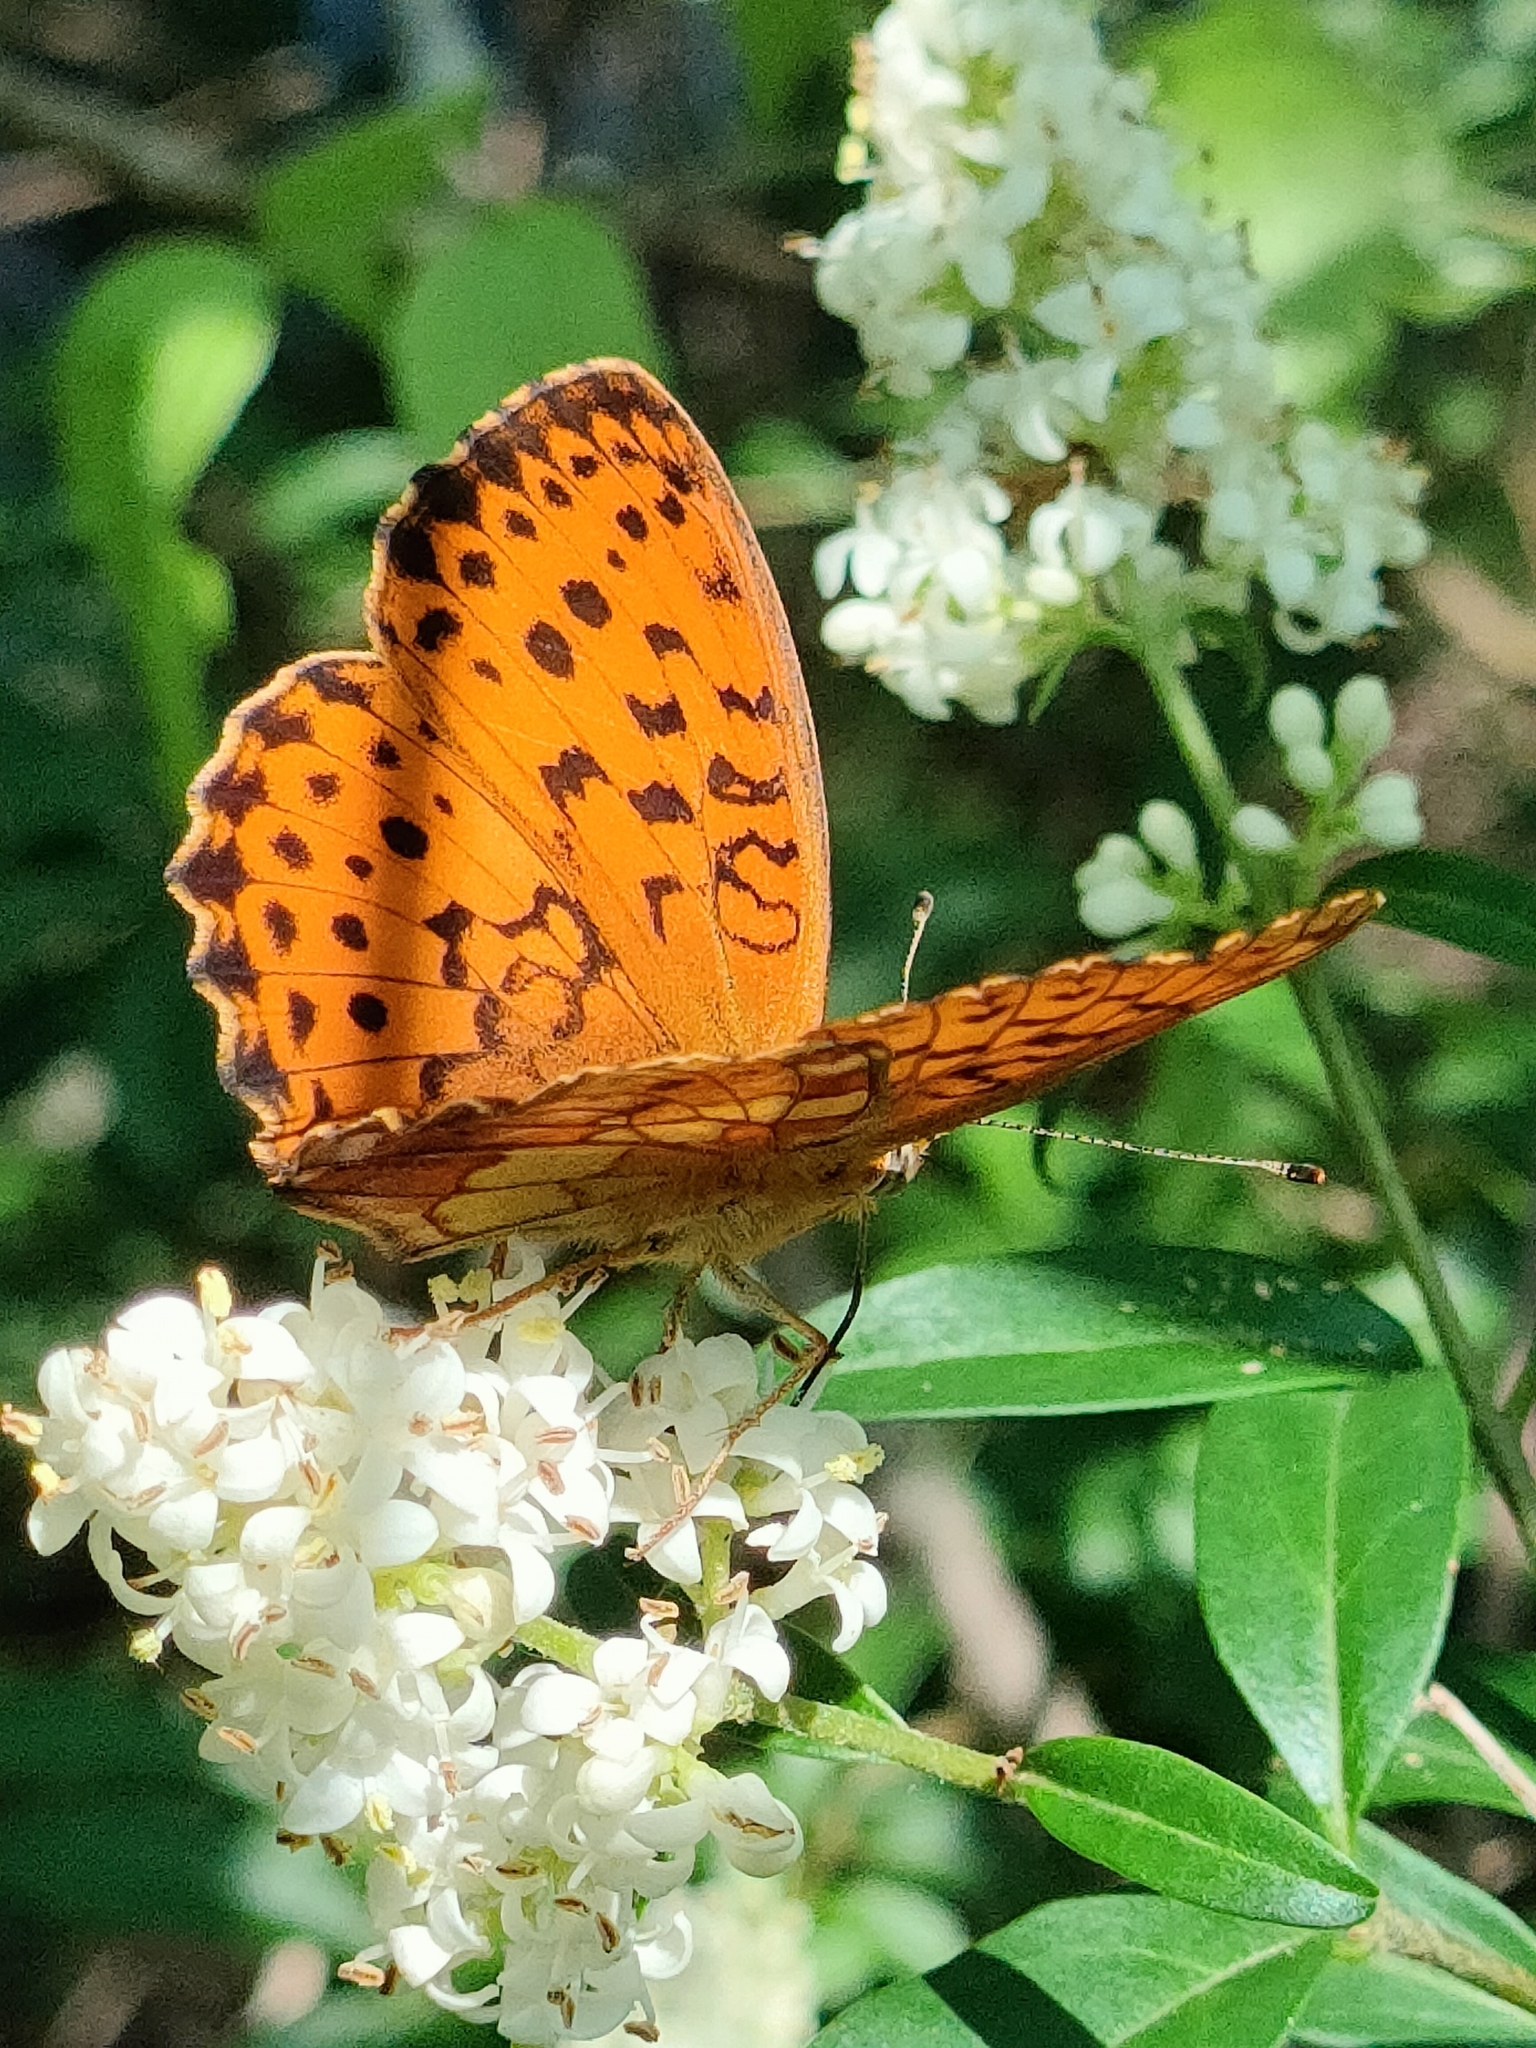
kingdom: Animalia
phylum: Arthropoda
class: Insecta
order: Lepidoptera
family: Nymphalidae
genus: Brenthis
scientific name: Brenthis daphne
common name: Marbled fritillary
